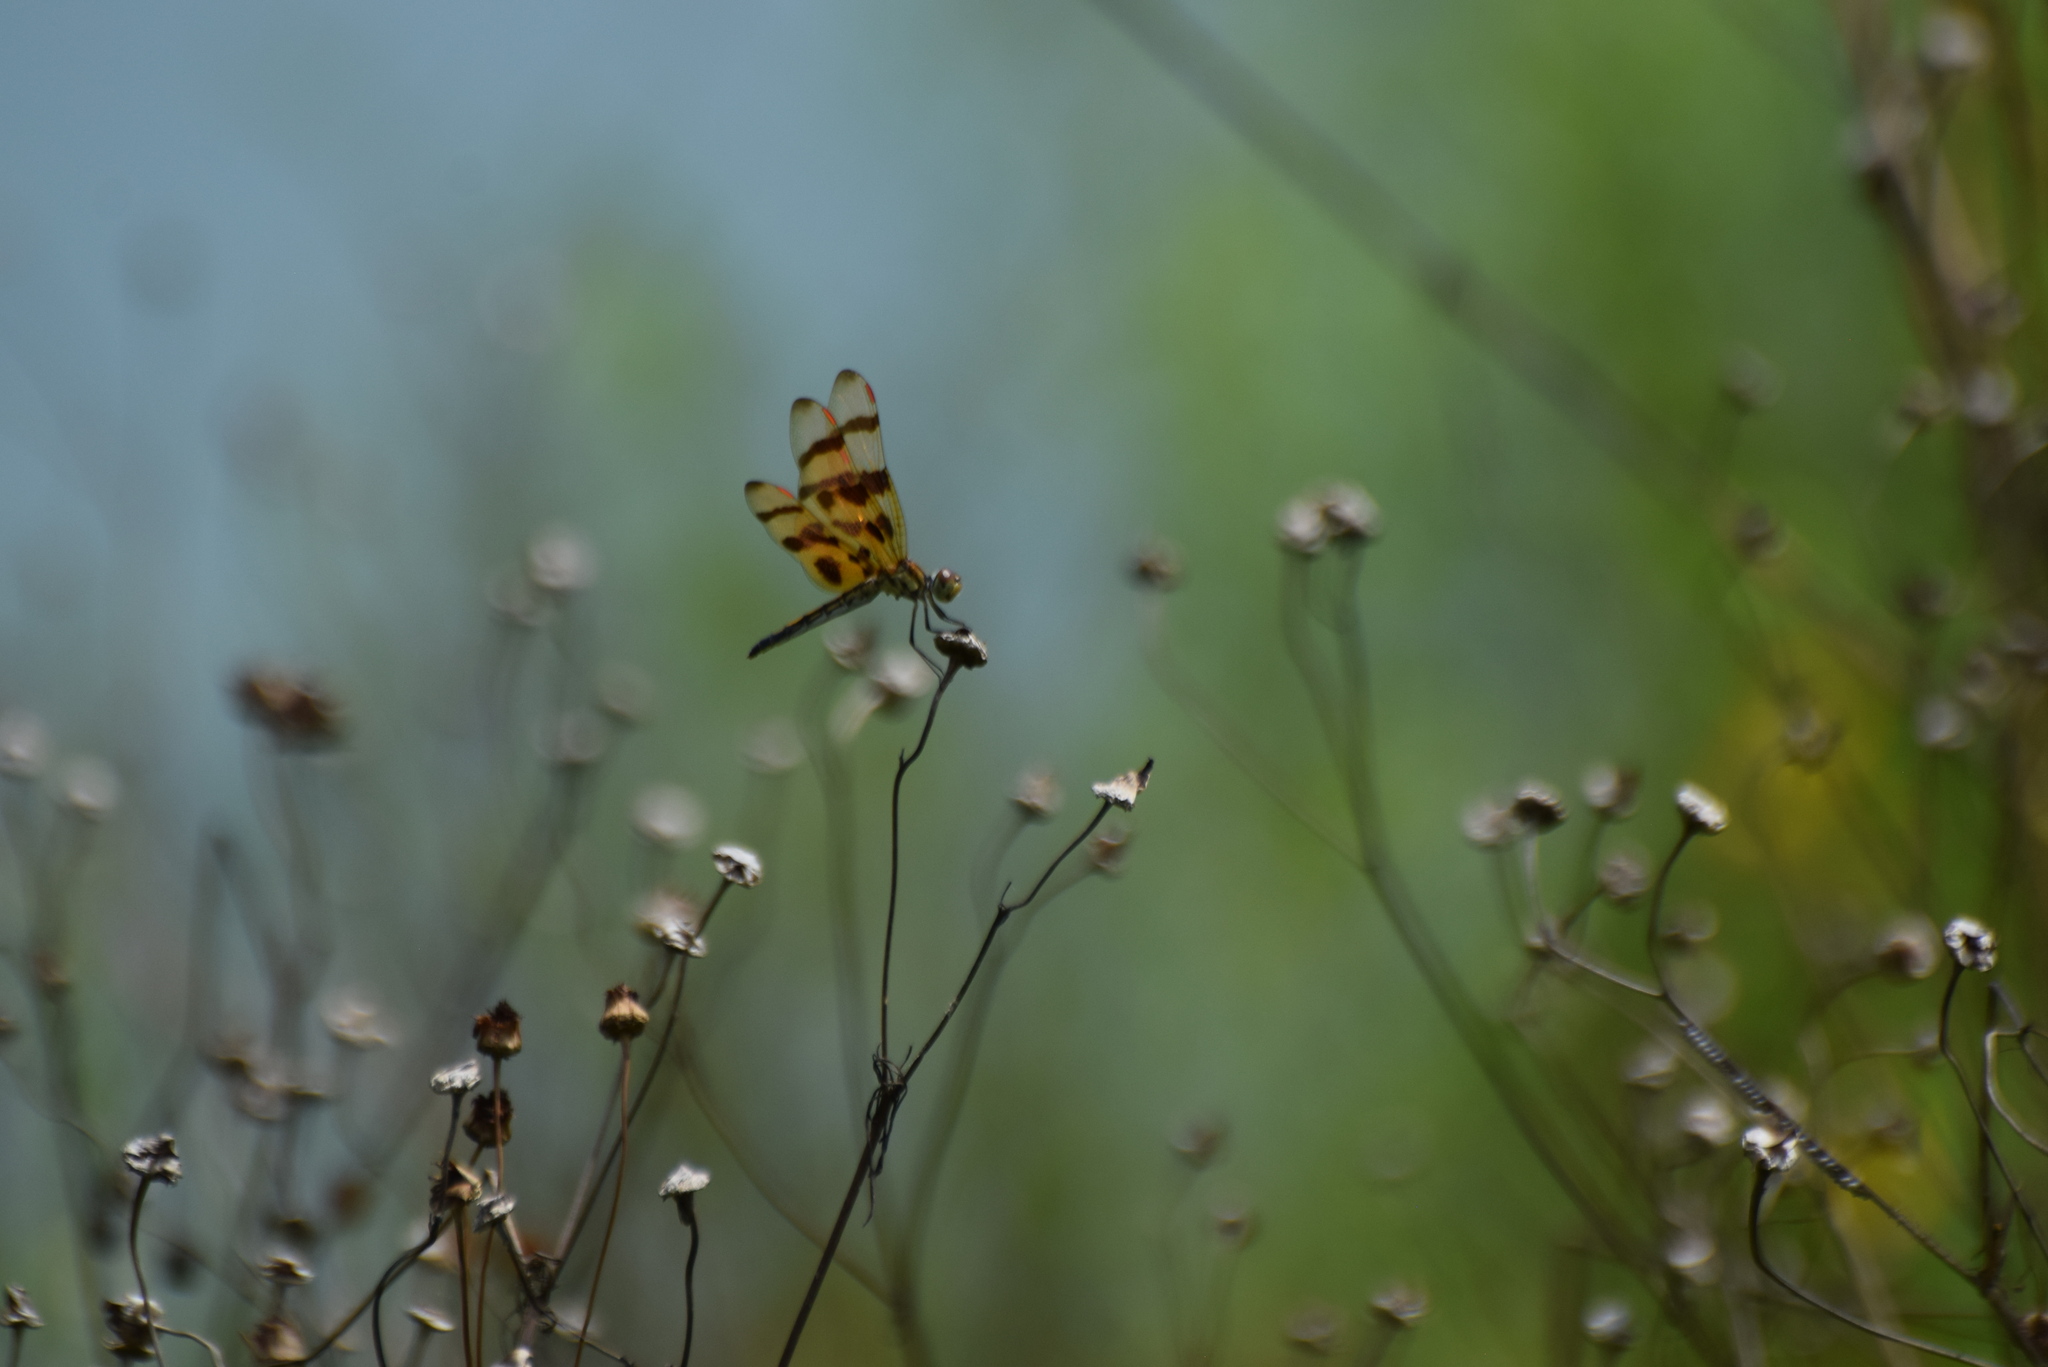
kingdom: Animalia
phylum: Arthropoda
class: Insecta
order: Odonata
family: Libellulidae
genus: Celithemis
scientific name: Celithemis eponina
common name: Halloween pennant
